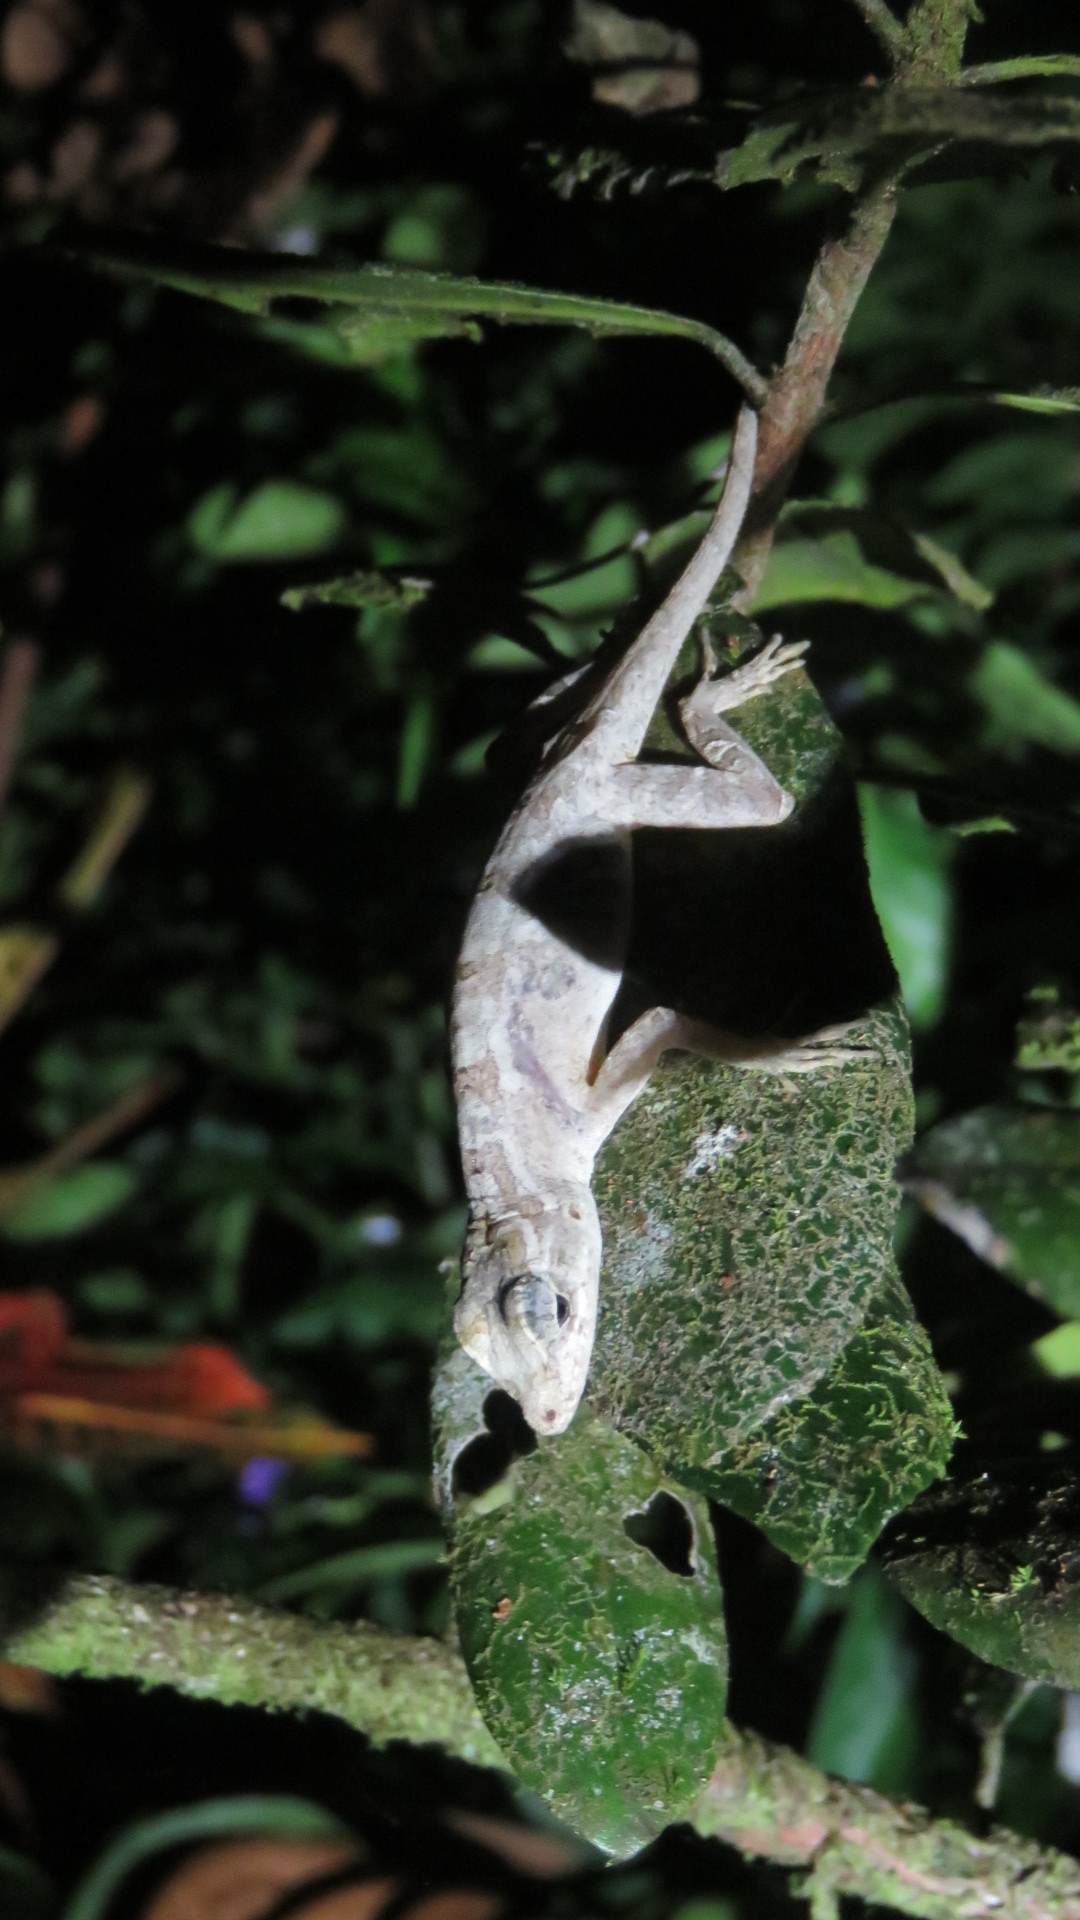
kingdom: Animalia
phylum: Chordata
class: Squamata
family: Dactyloidae
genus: Anolis
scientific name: Anolis lemurinus
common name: Ghost anole
